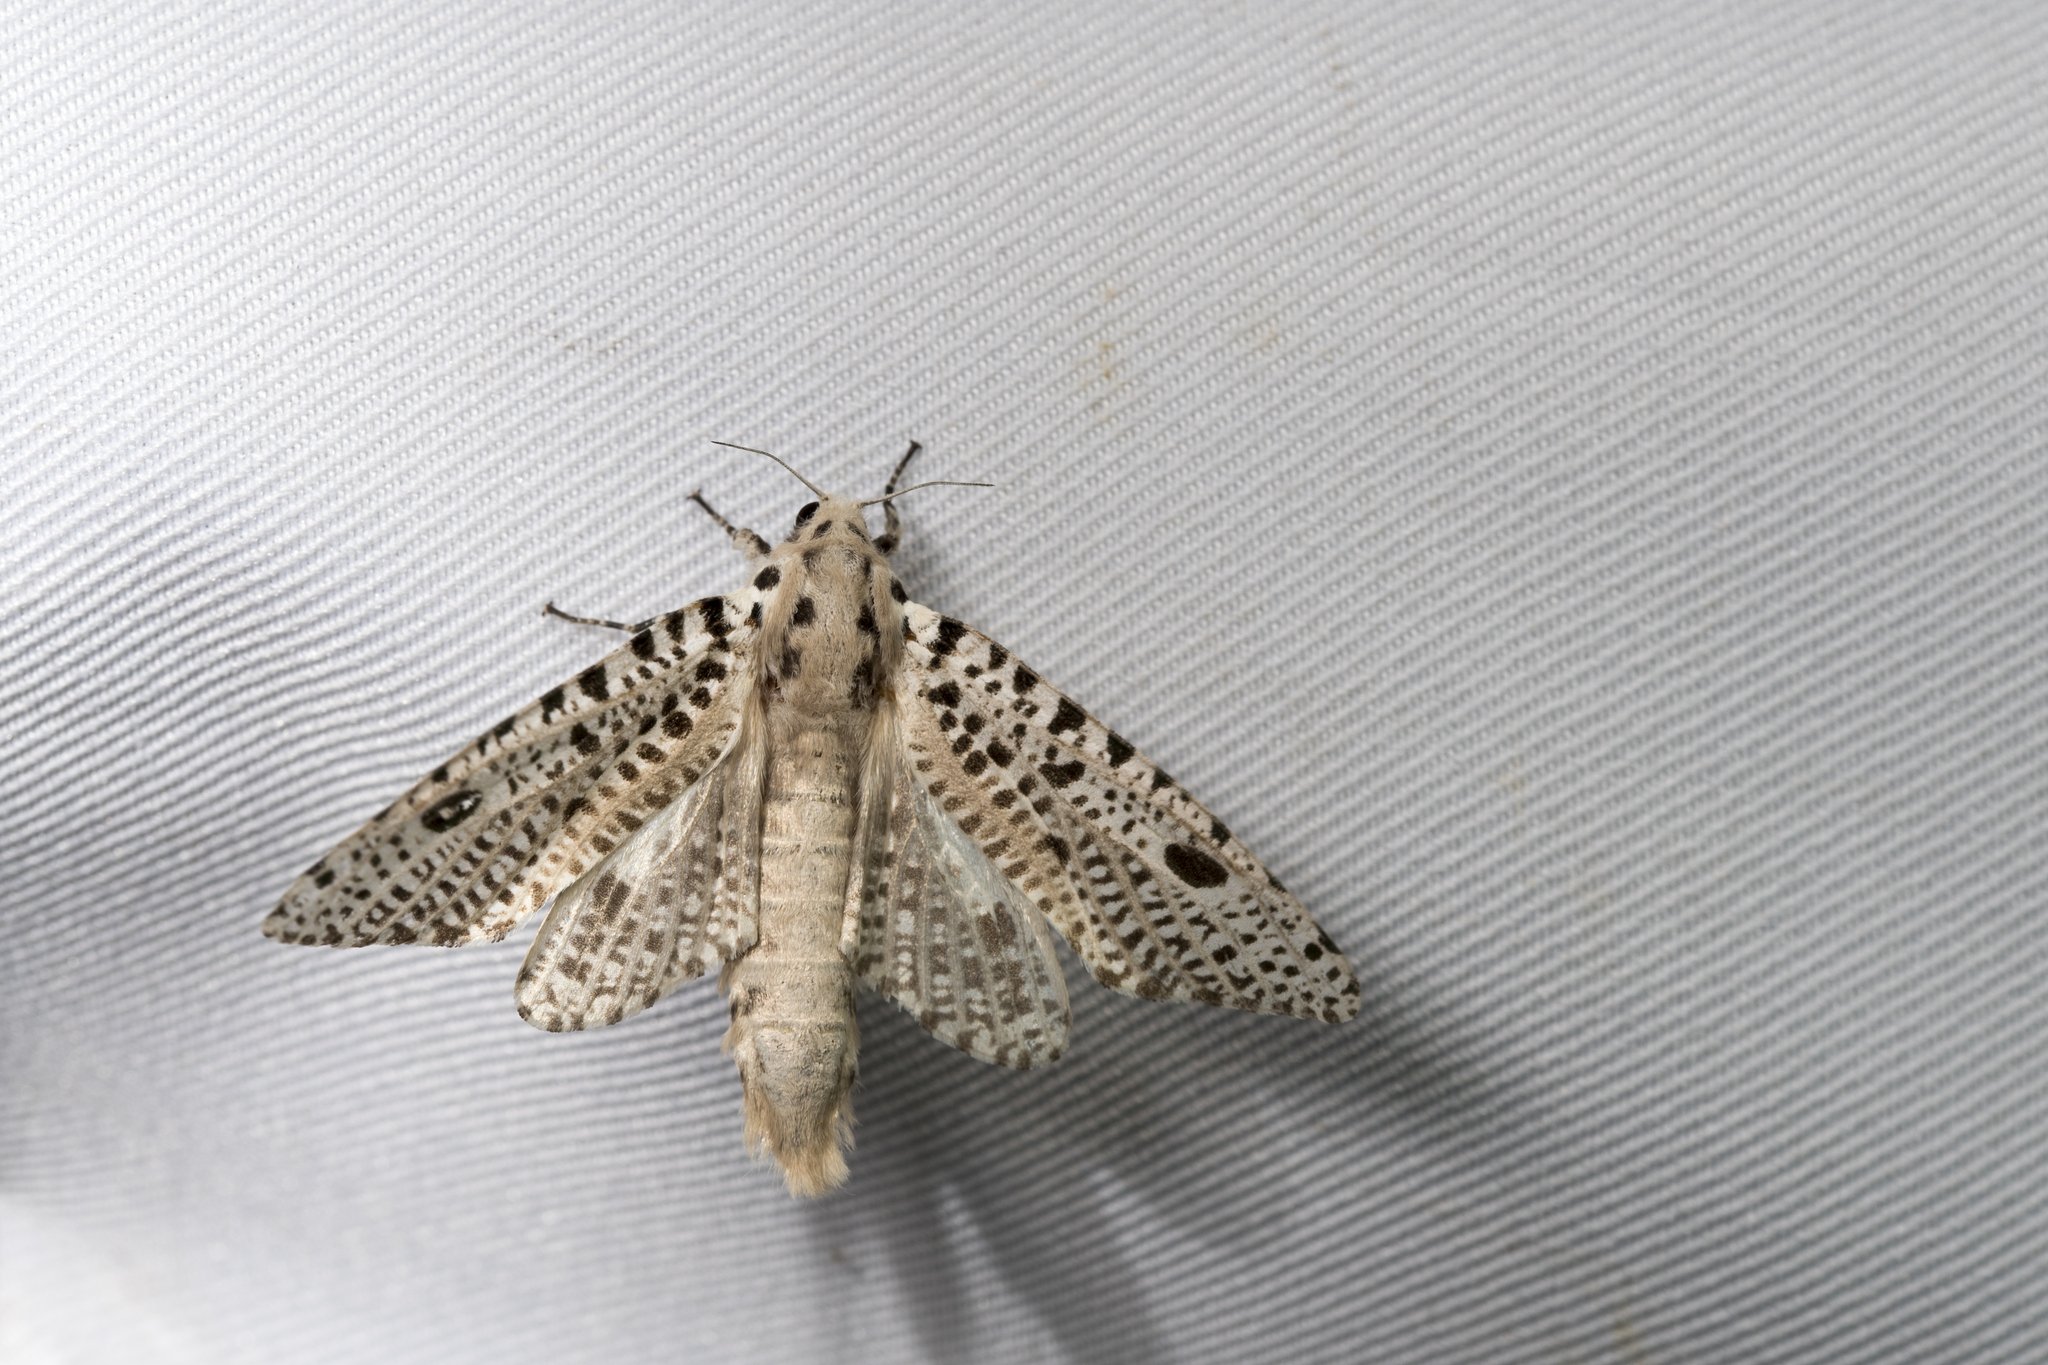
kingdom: Animalia
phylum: Arthropoda
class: Insecta
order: Lepidoptera
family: Cossidae
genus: Rapdalus
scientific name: Rapdalus pardicolor
